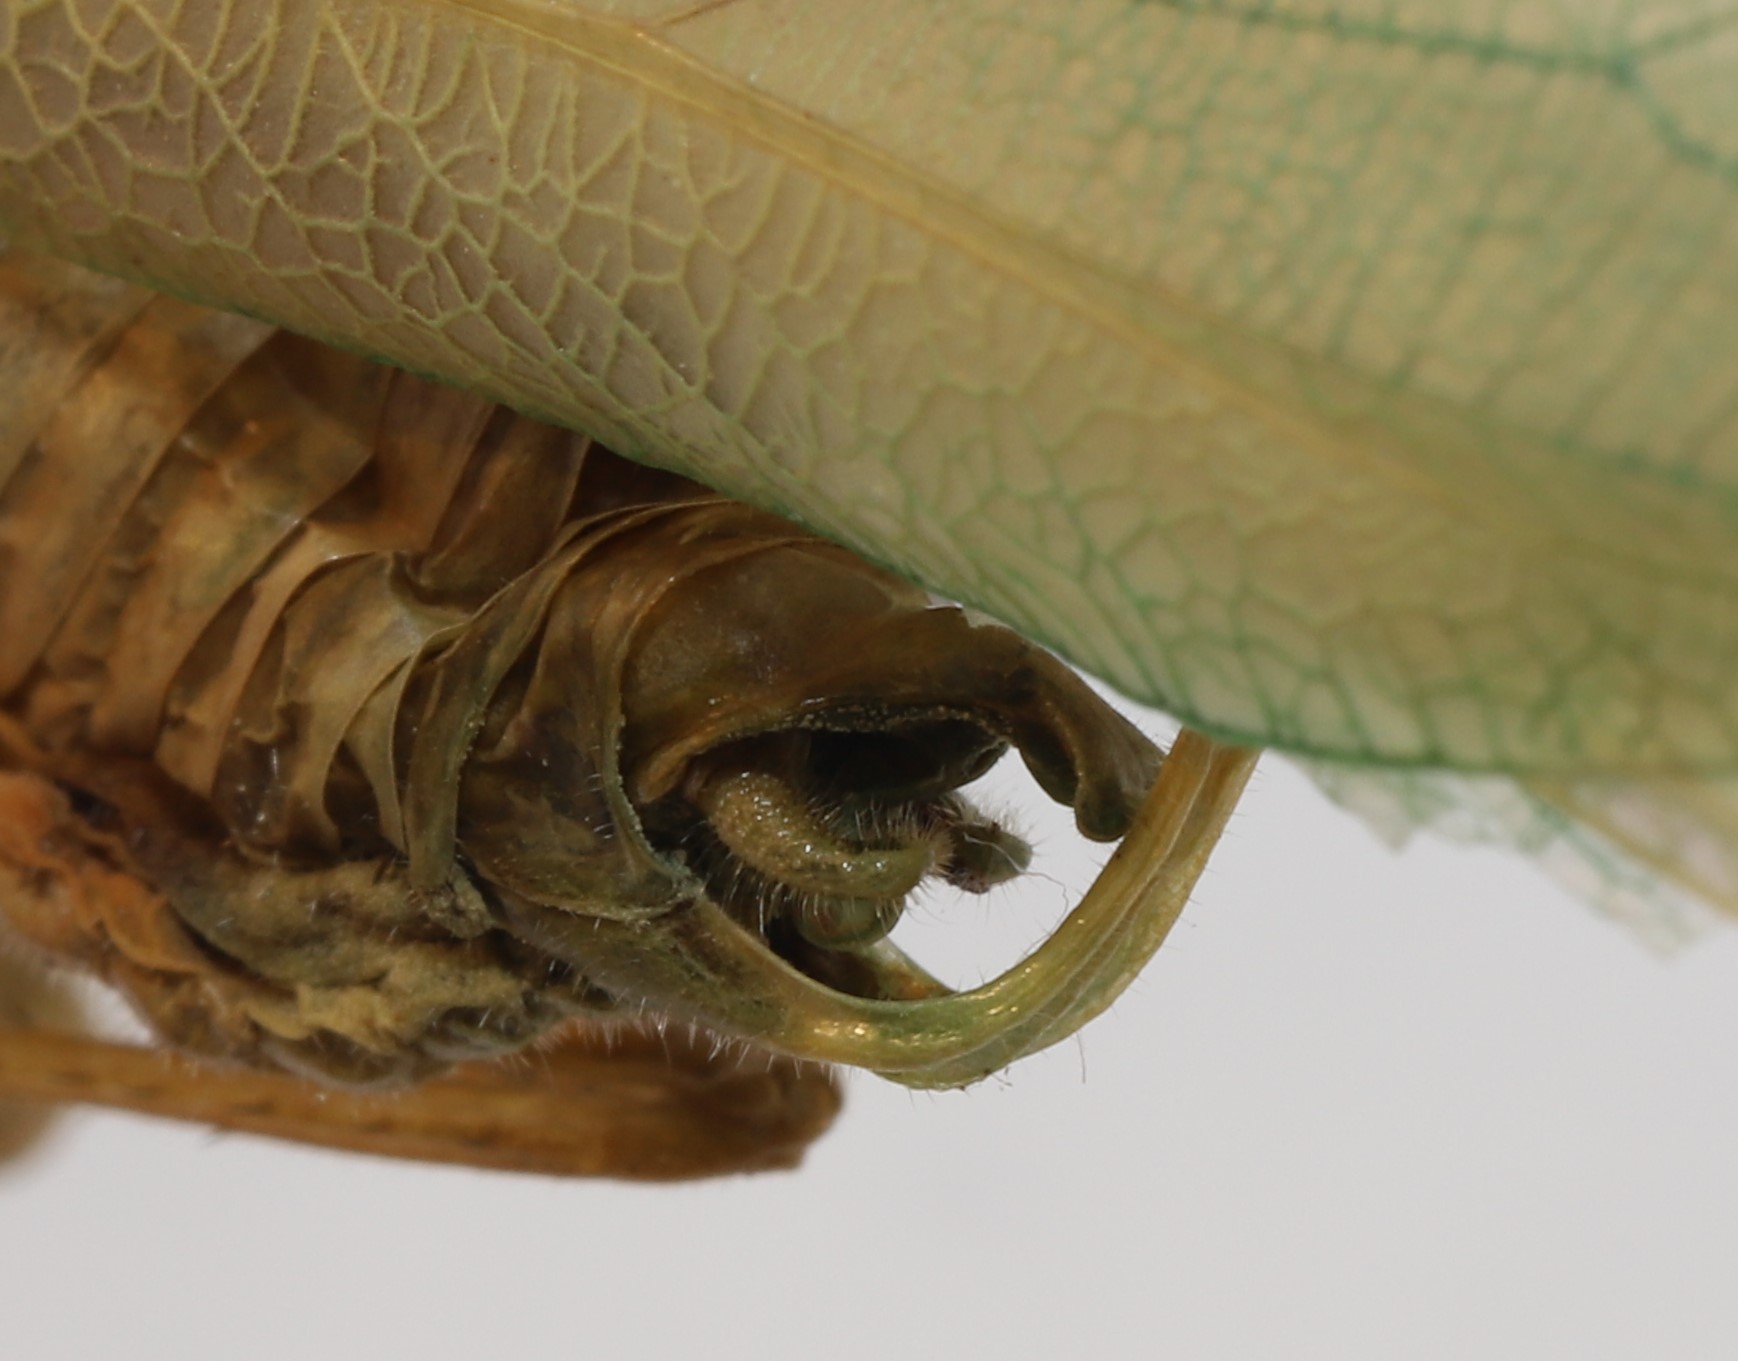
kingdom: Animalia
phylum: Arthropoda
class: Insecta
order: Orthoptera
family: Tettigoniidae
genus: Scudderia
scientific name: Scudderia pistillata
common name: Broad-winged bush-katydid
